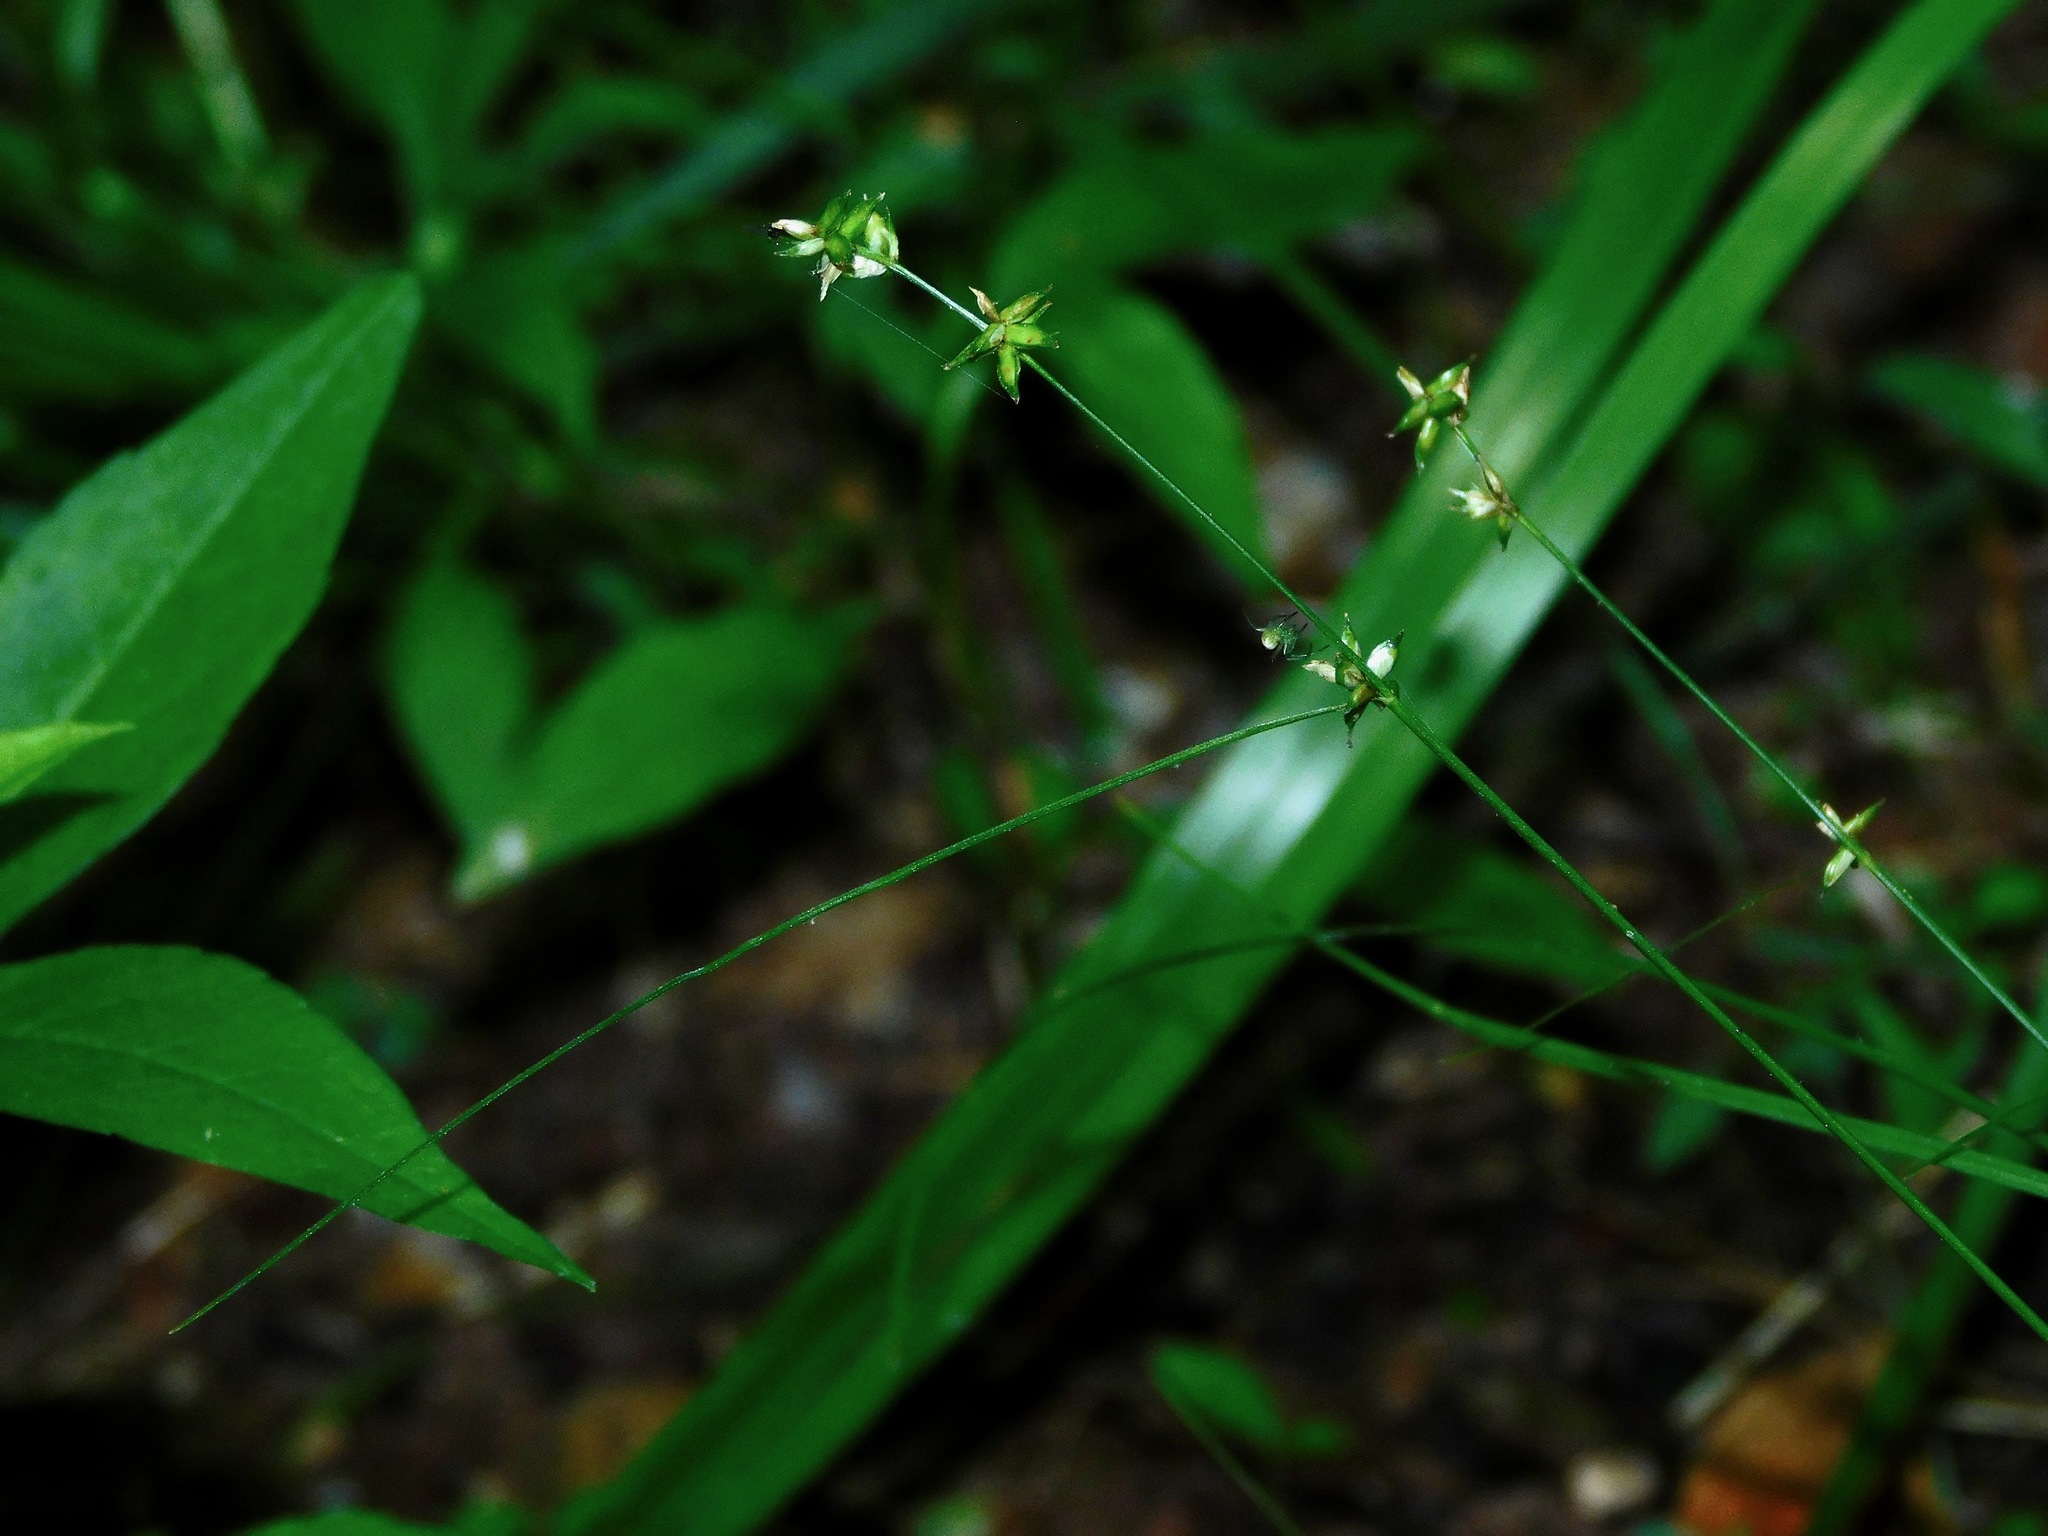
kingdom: Plantae
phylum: Tracheophyta
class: Liliopsida
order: Poales
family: Cyperaceae
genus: Carex
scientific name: Carex rosea
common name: Curly-styled wood sedge
